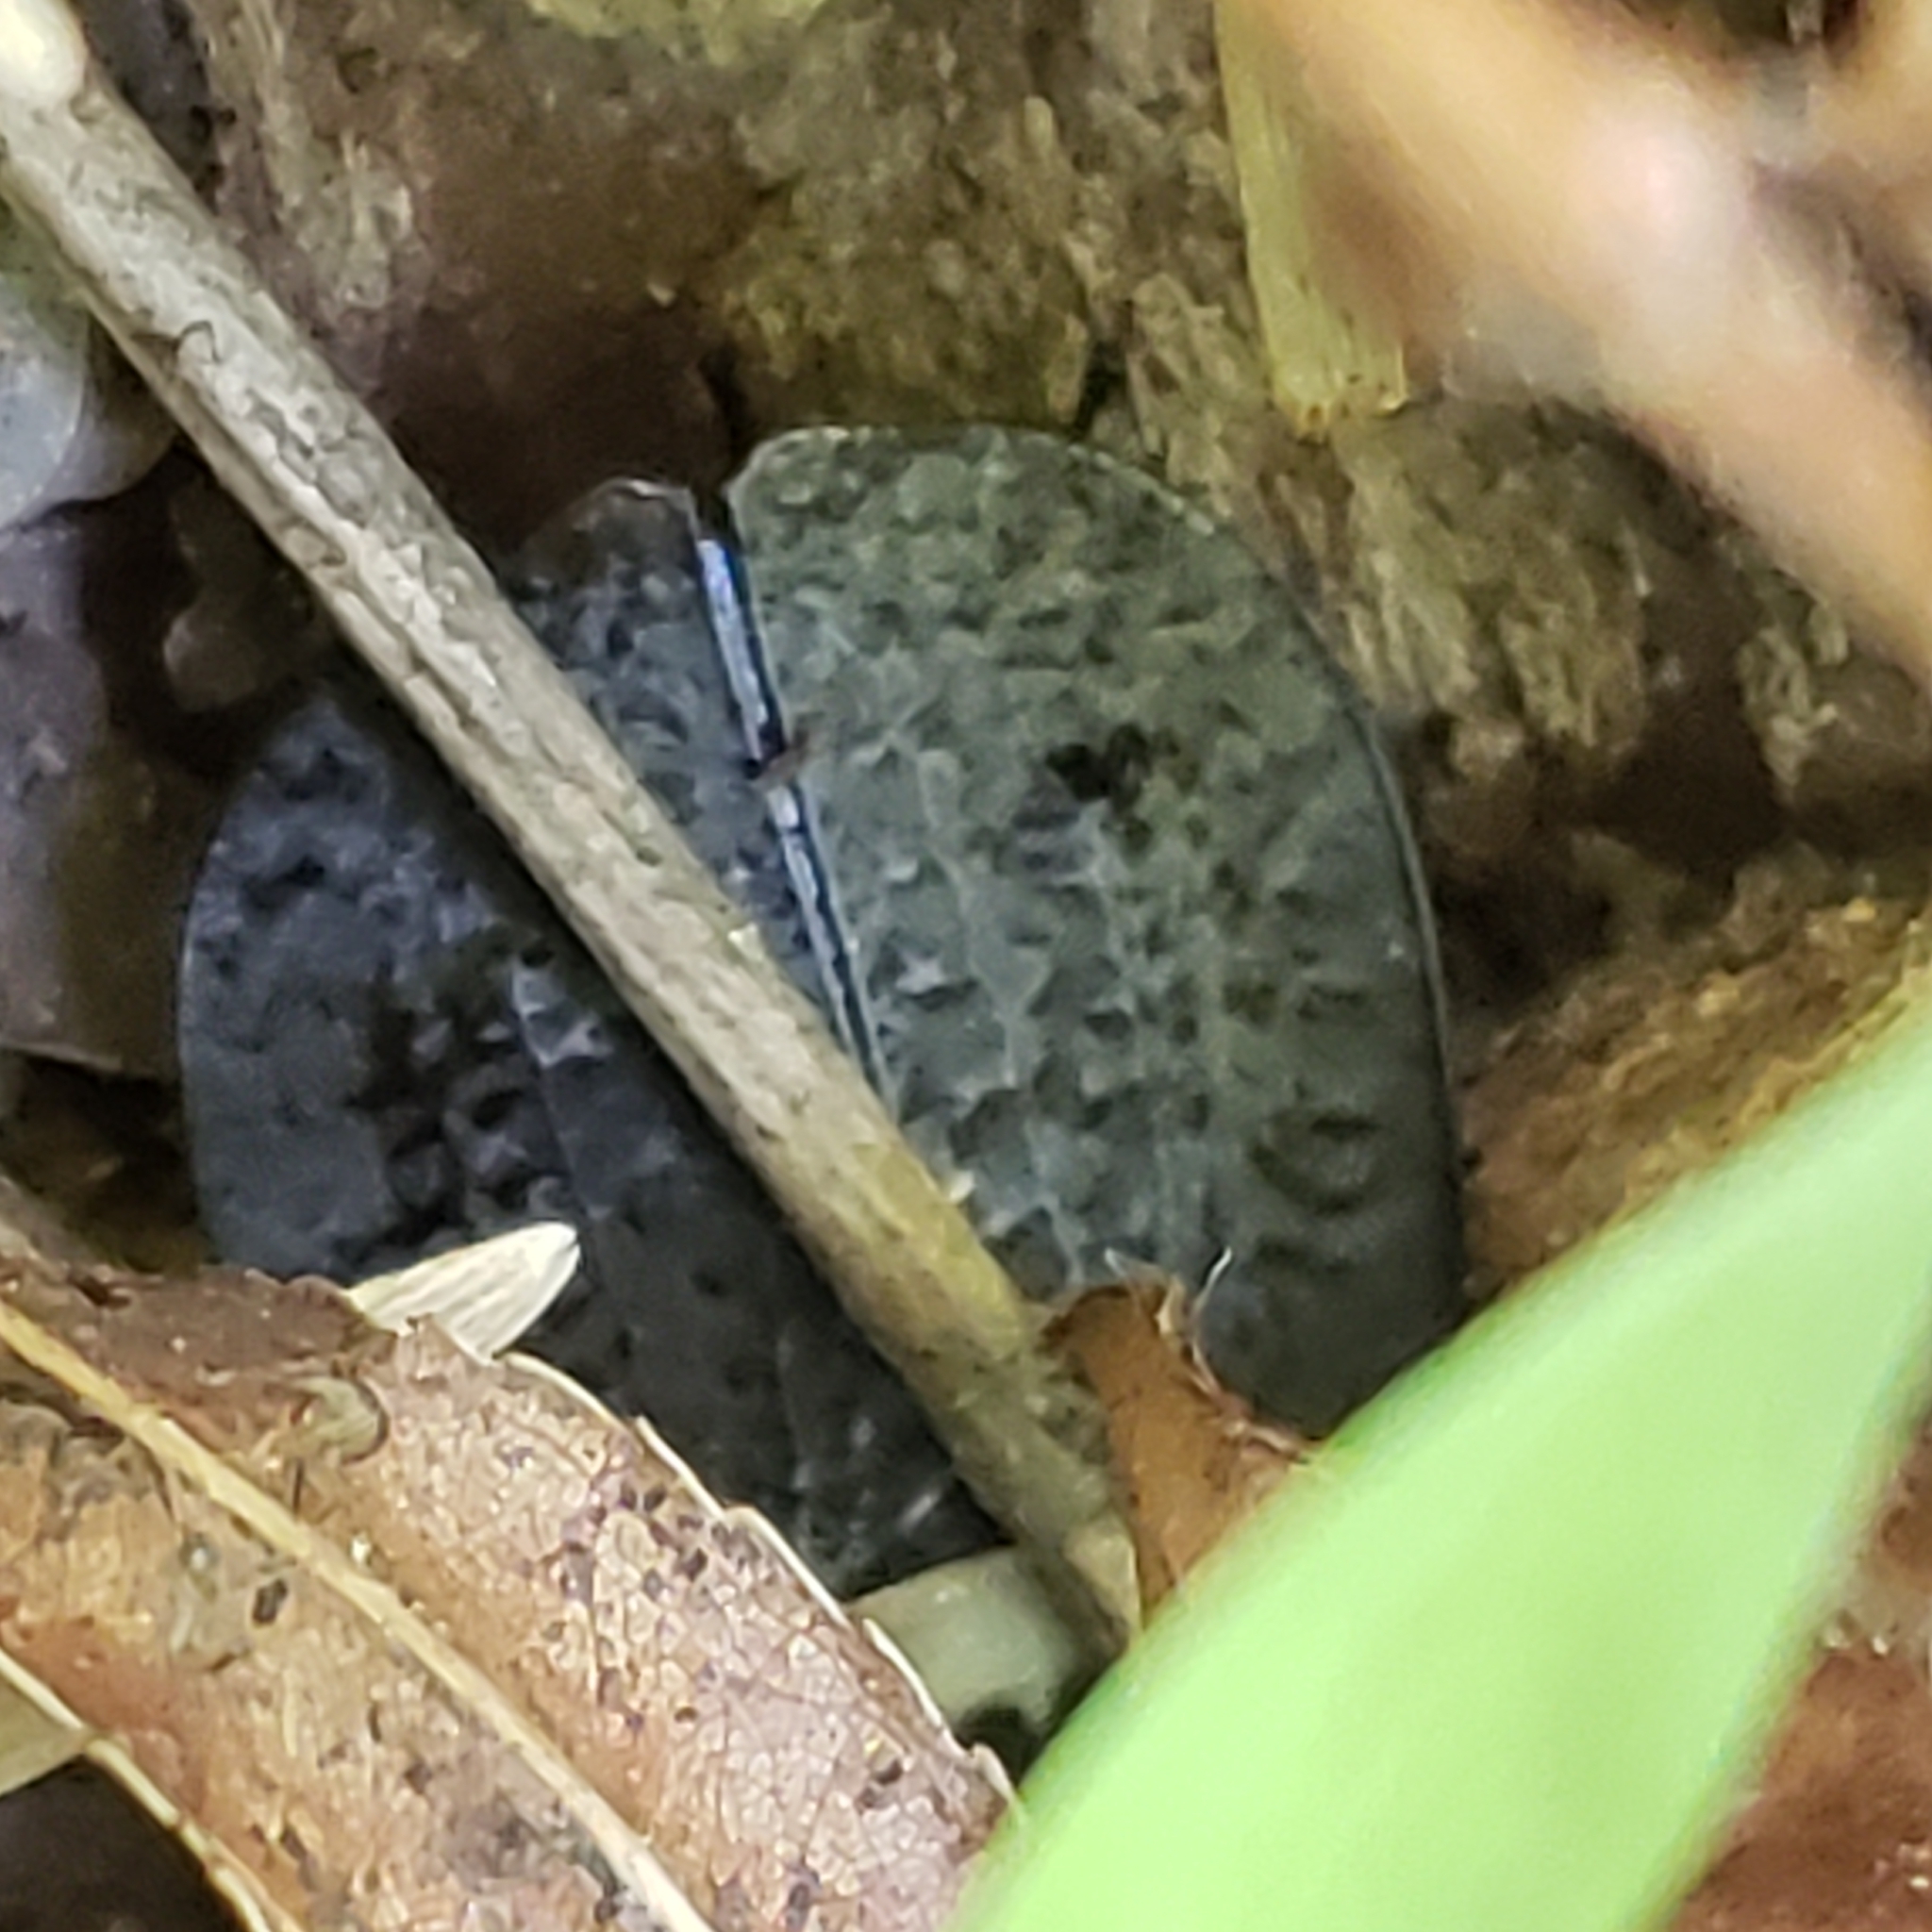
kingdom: Animalia
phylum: Arthropoda
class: Insecta
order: Coleoptera
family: Staphylinidae
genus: Necrophila
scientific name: Necrophila americana
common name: American carrion beetle
